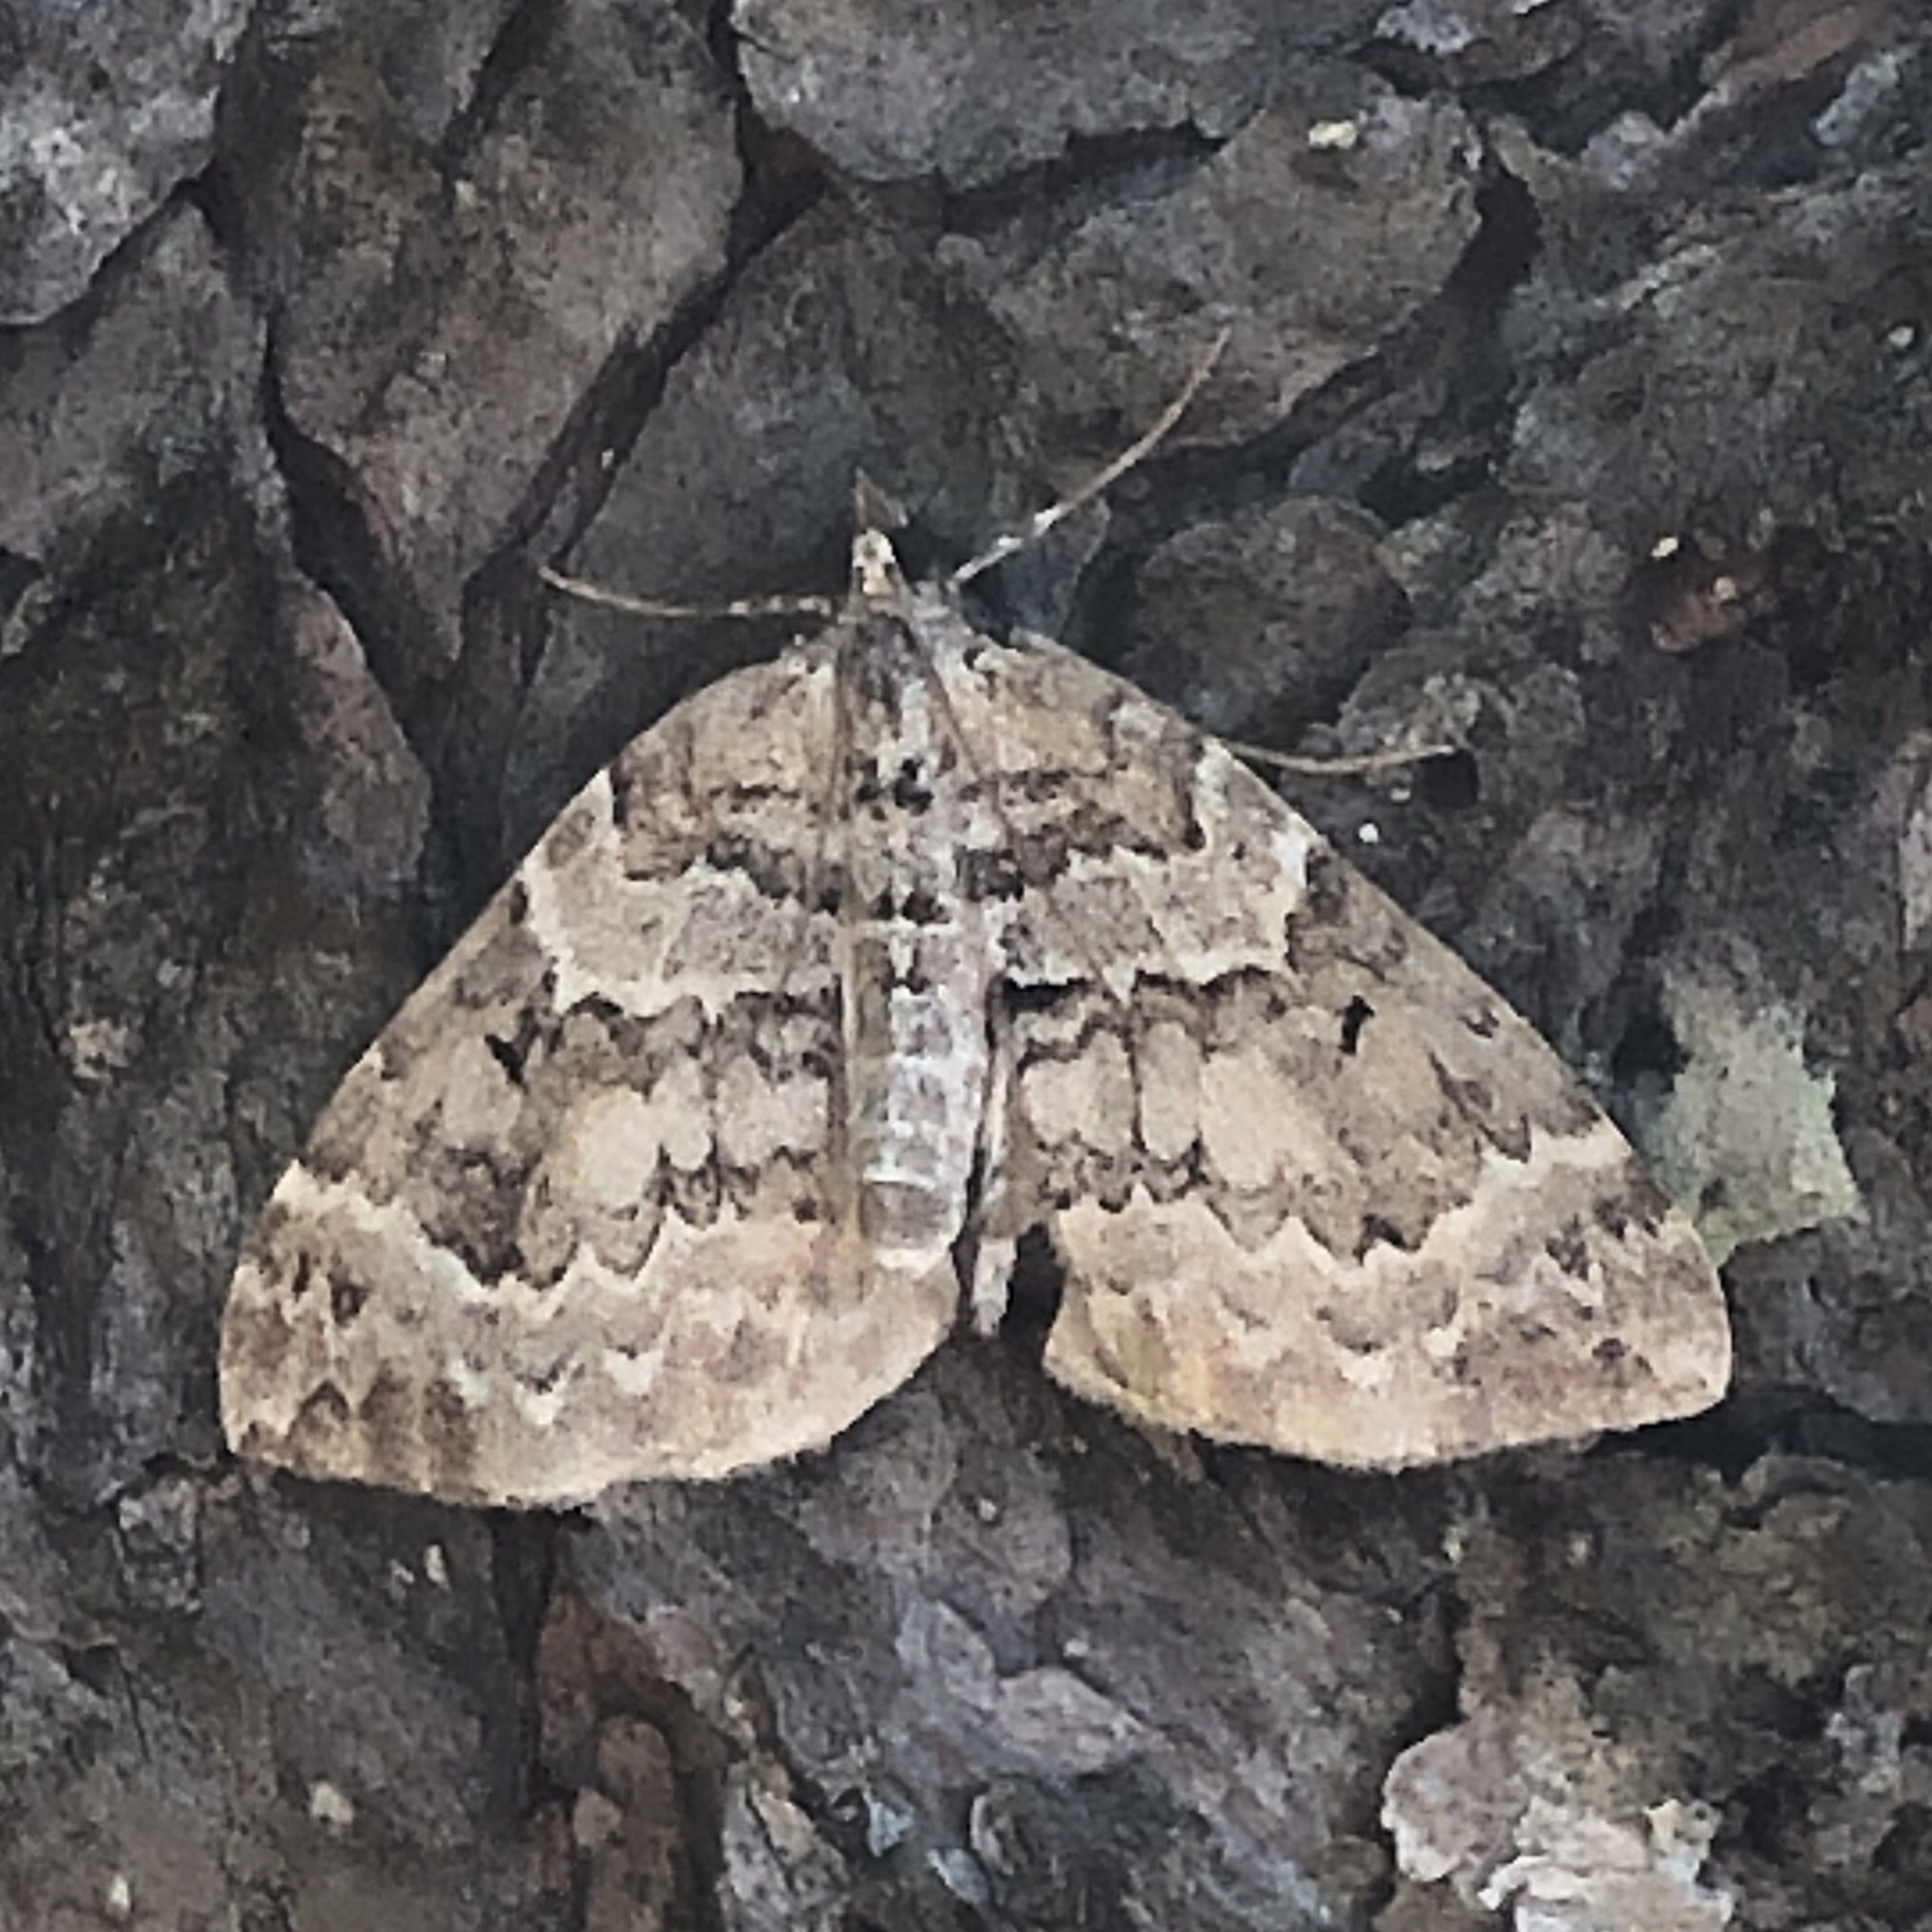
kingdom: Animalia
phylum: Arthropoda
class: Insecta
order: Lepidoptera
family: Geometridae
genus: Eulithis
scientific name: Eulithis explanata
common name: White eulithis
